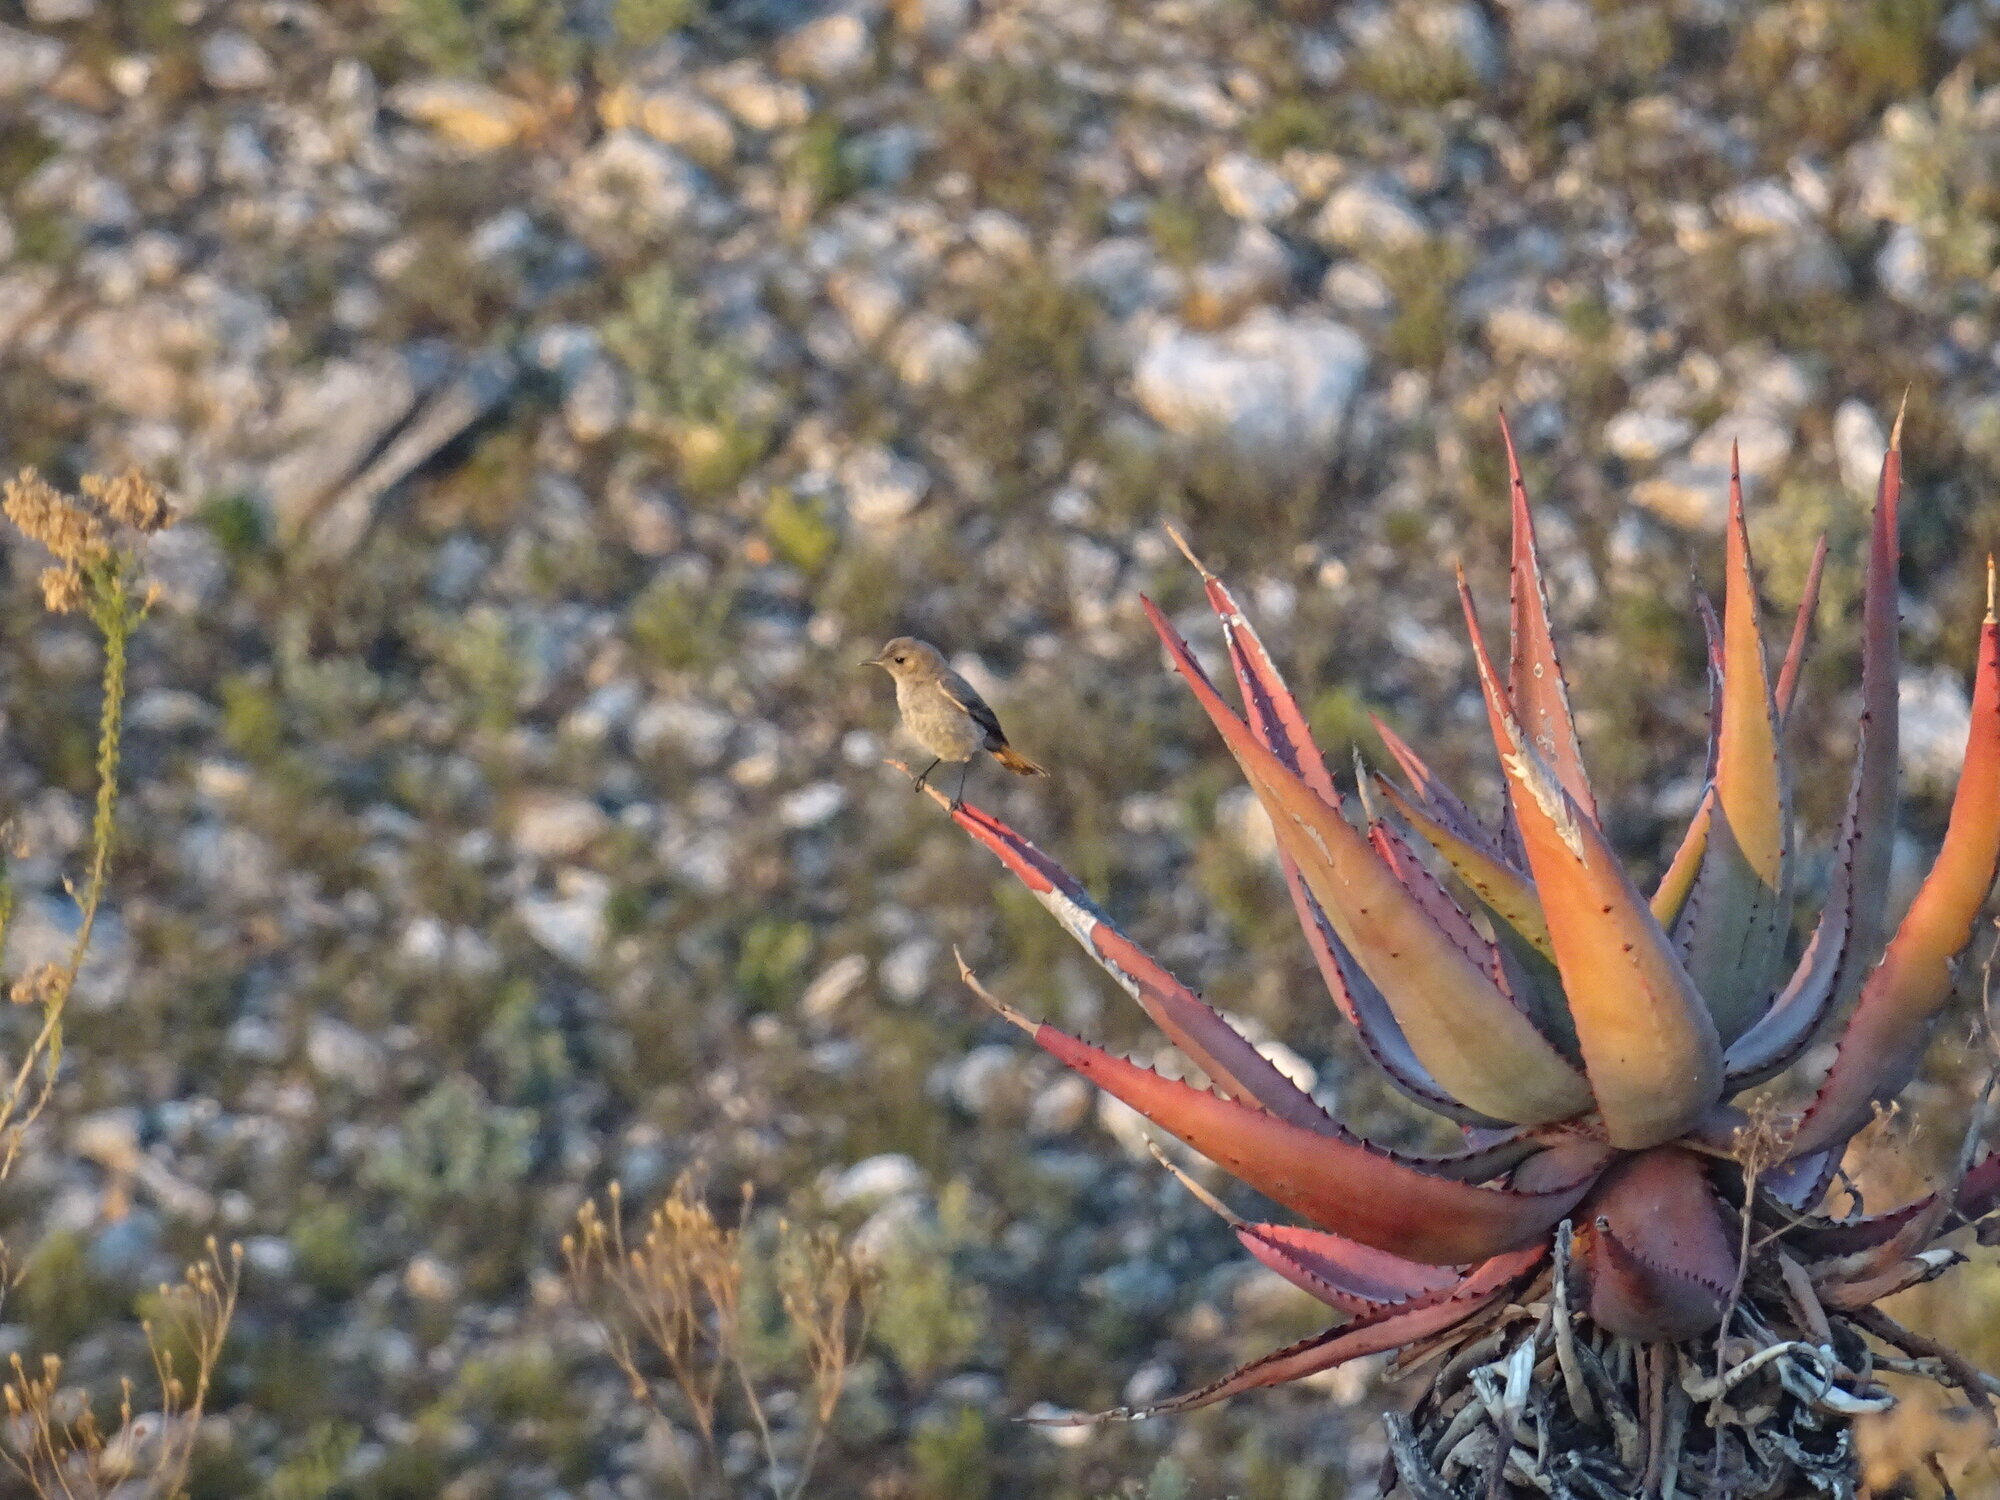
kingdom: Animalia
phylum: Chordata
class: Aves
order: Passeriformes
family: Muscicapidae
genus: Oenanthe
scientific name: Oenanthe familiaris
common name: Familiar chat
